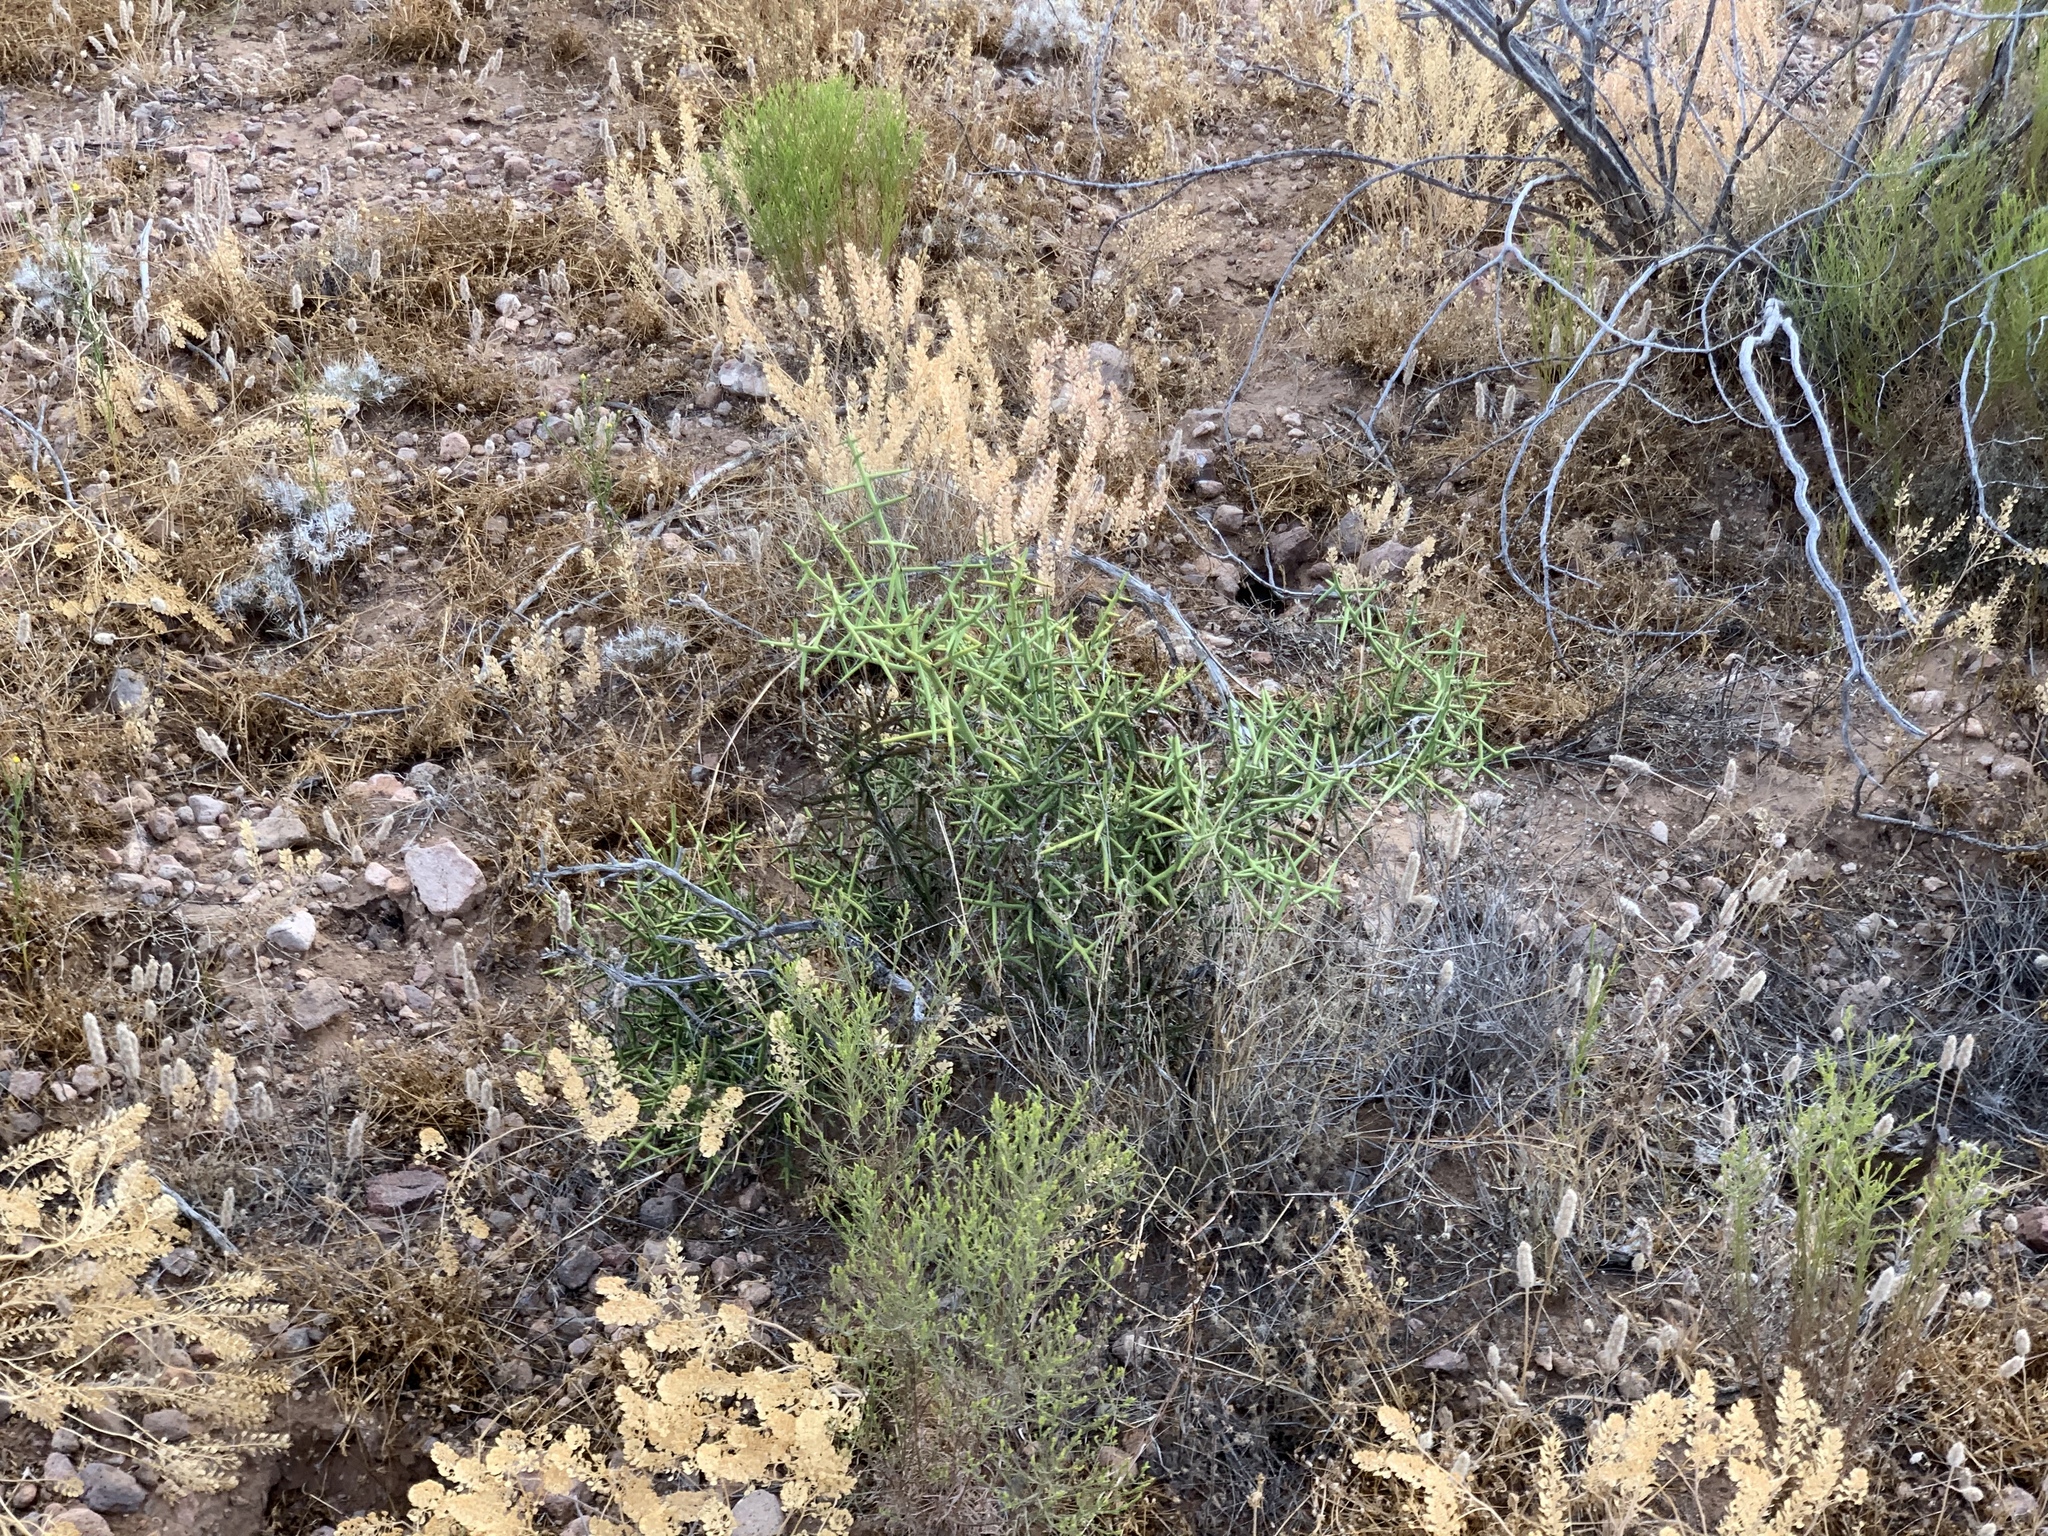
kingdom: Plantae
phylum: Tracheophyta
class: Magnoliopsida
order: Brassicales
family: Koeberliniaceae
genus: Koeberlinia
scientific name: Koeberlinia spinosa
